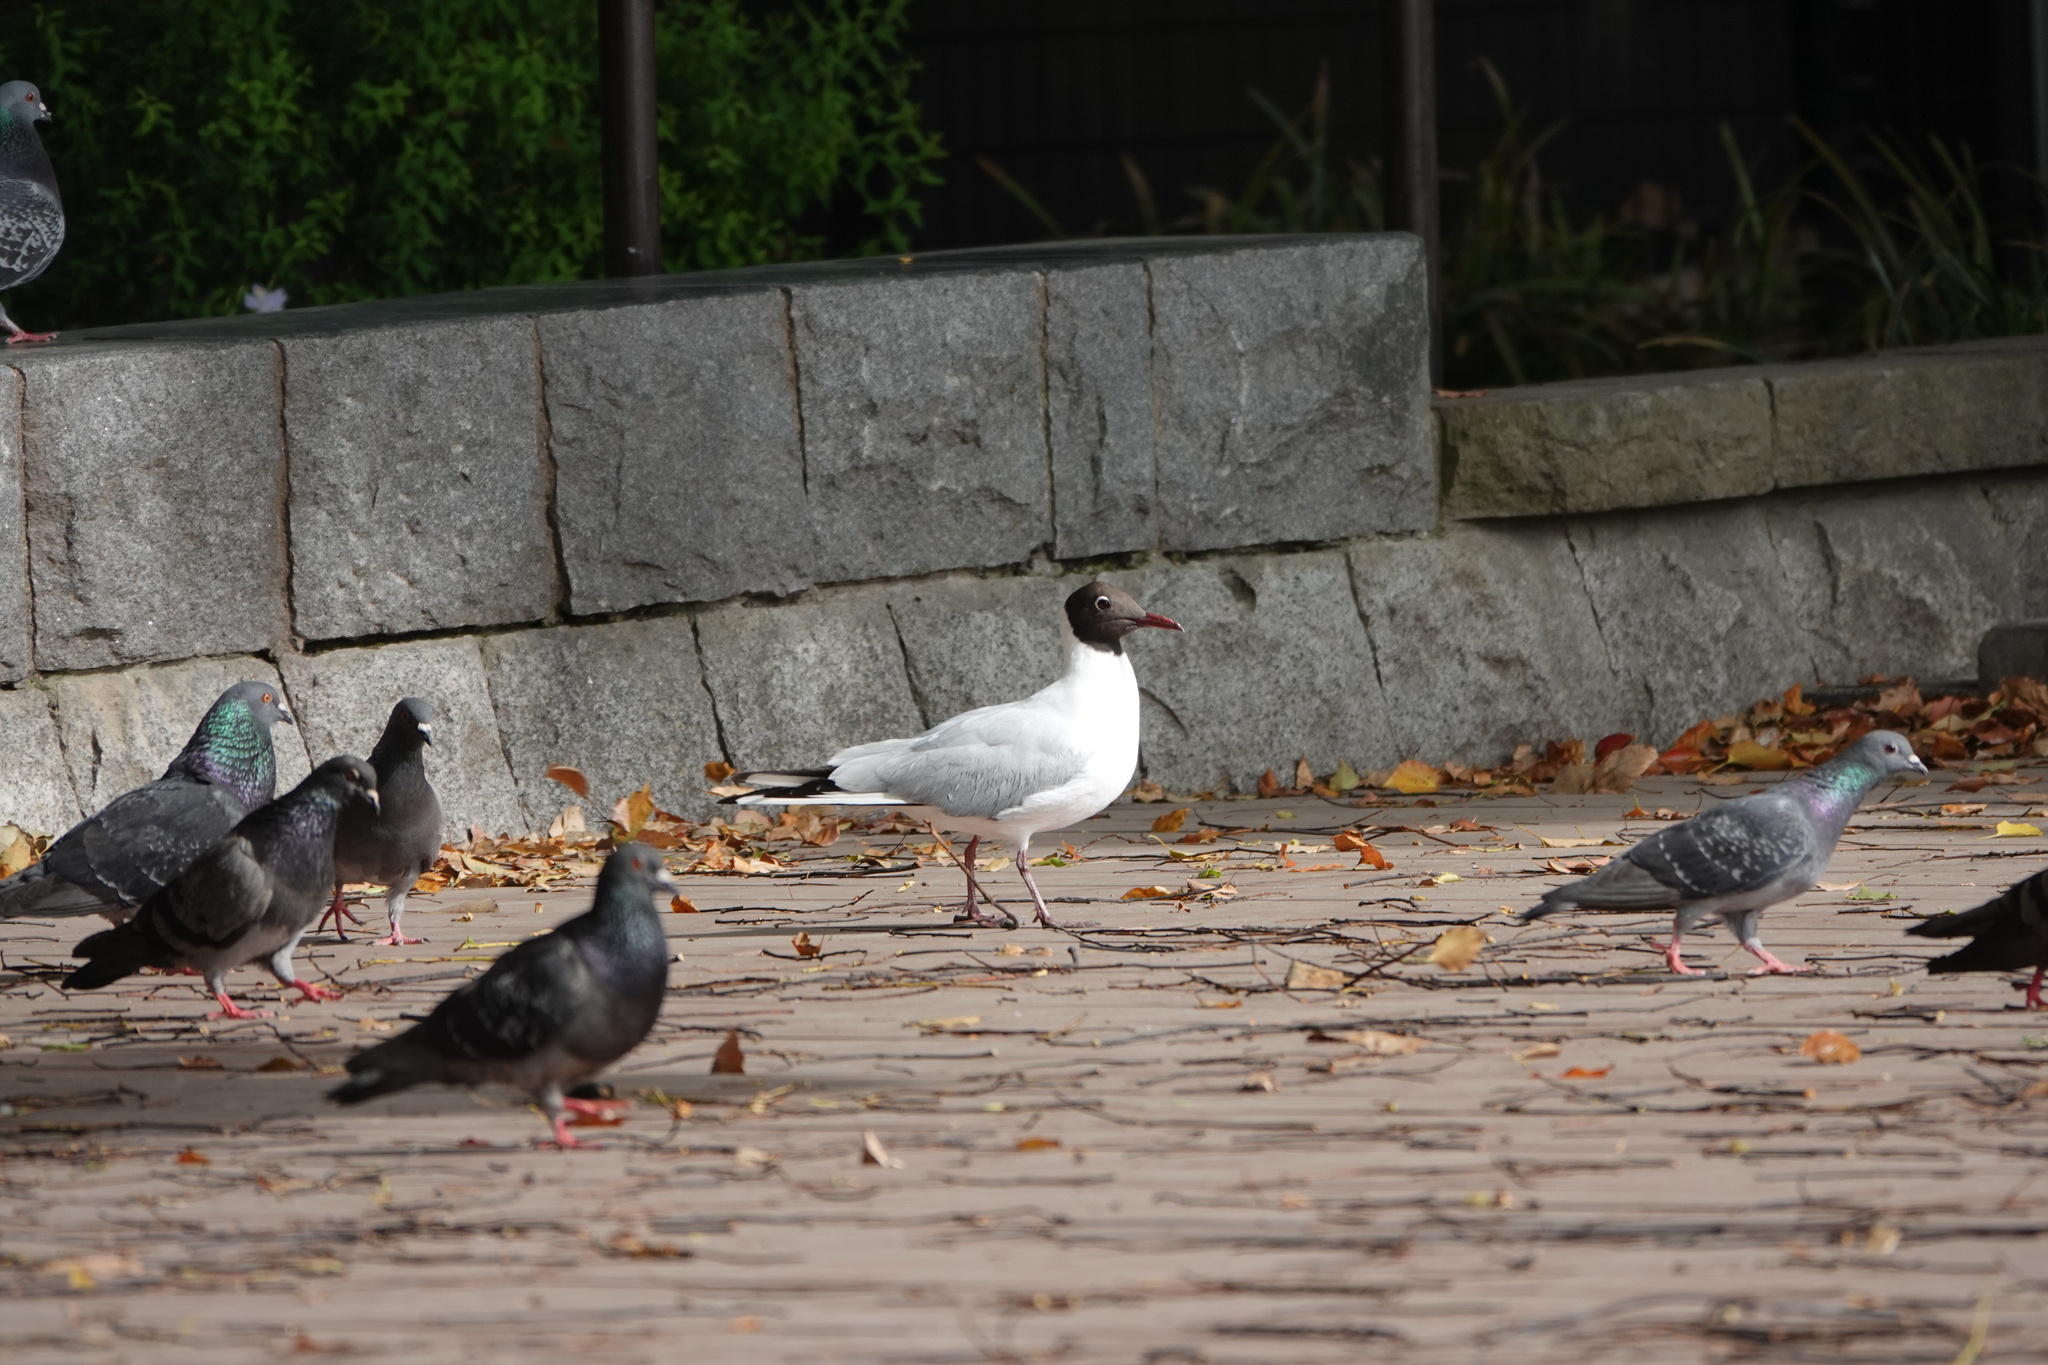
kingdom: Animalia
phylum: Chordata
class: Aves
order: Charadriiformes
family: Laridae
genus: Chroicocephalus
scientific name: Chroicocephalus ridibundus
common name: Black-headed gull
